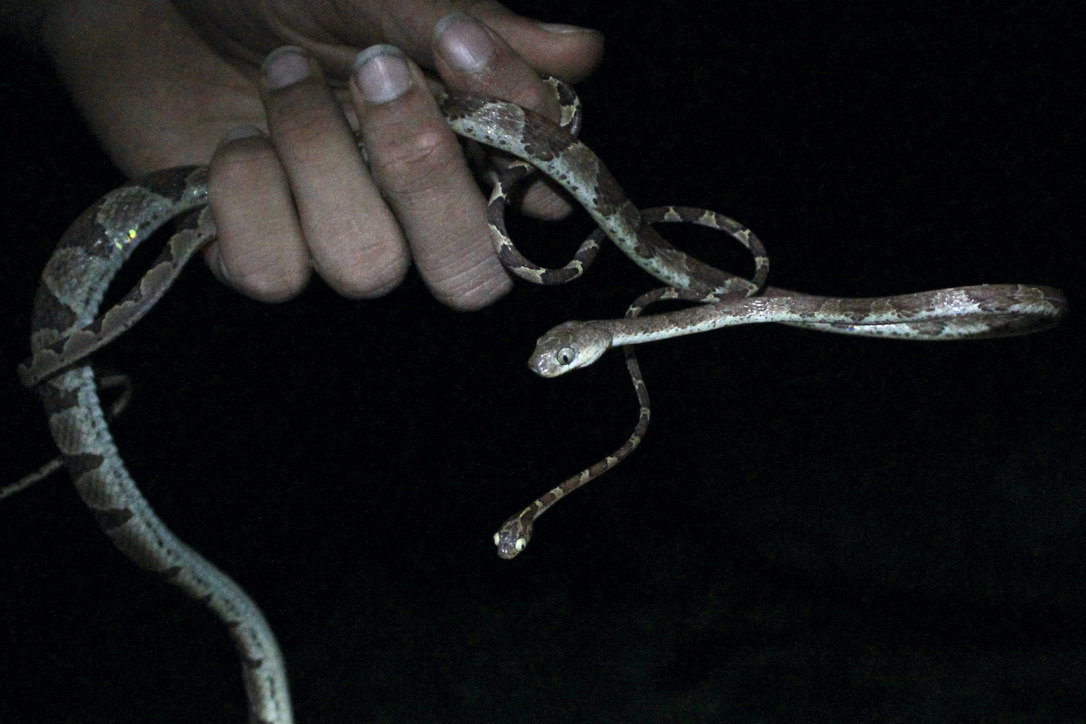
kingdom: Animalia
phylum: Chordata
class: Squamata
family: Colubridae
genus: Imantodes
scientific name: Imantodes cenchoa
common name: Blunthead tree snake
